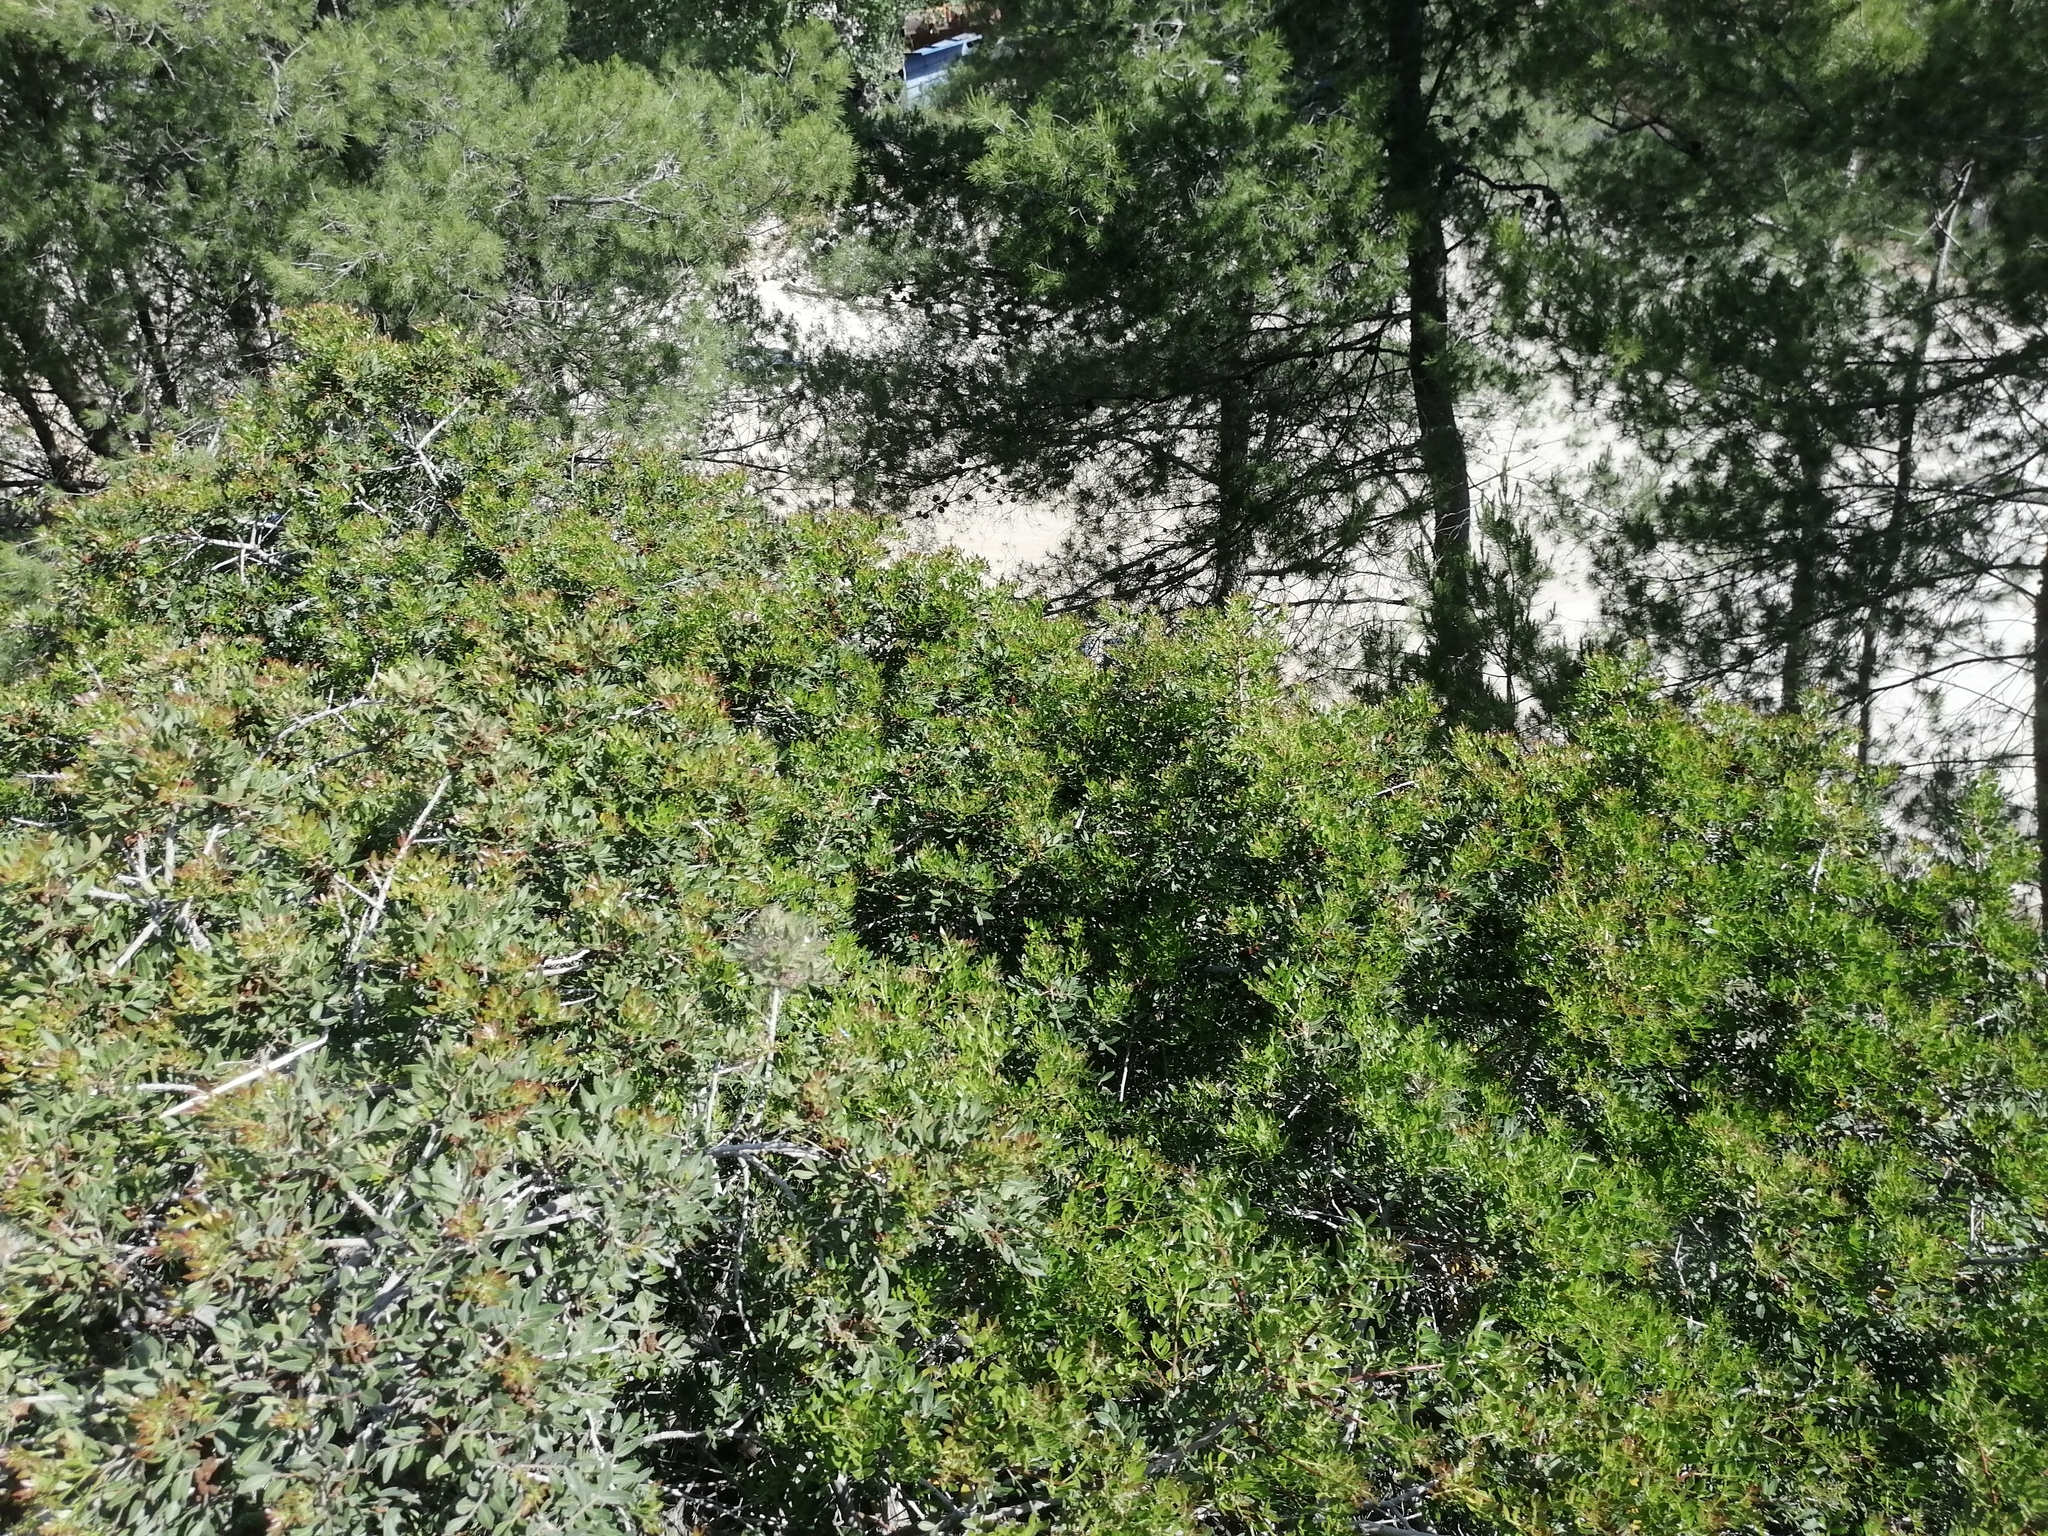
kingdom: Plantae
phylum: Tracheophyta
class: Magnoliopsida
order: Sapindales
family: Anacardiaceae
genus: Pistacia
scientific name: Pistacia lentiscus
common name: Lentisk
